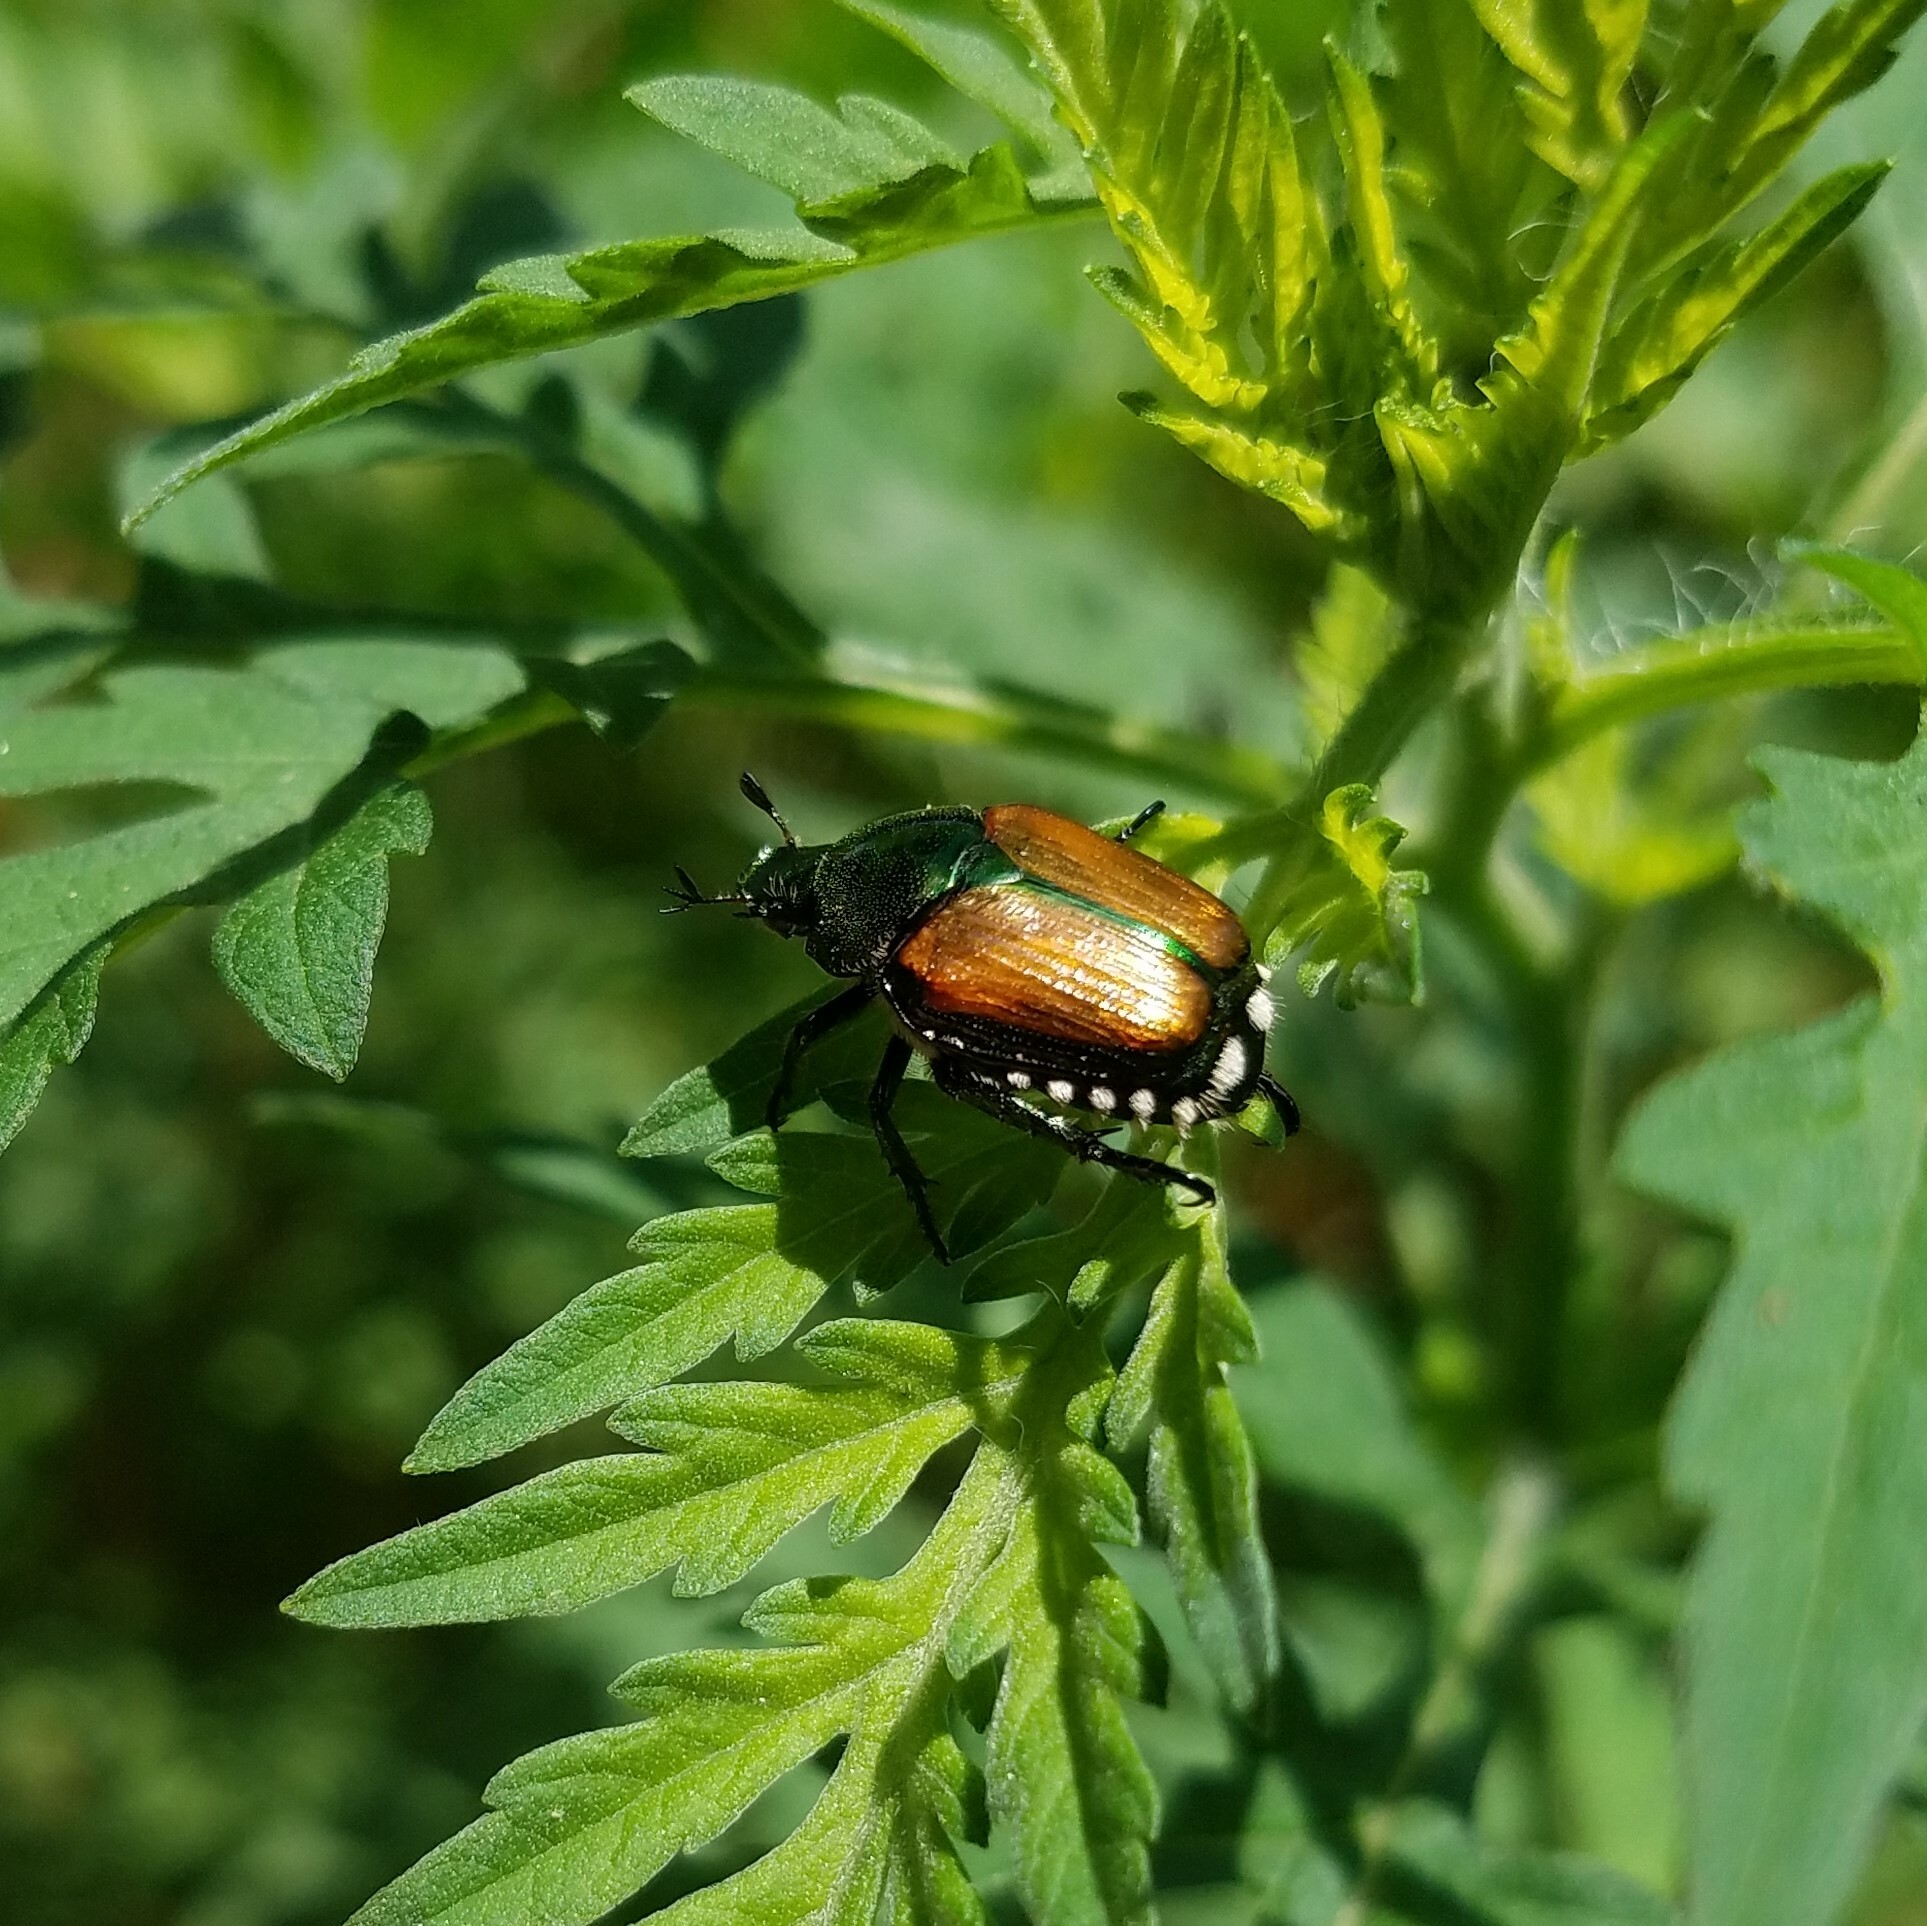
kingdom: Animalia
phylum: Arthropoda
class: Insecta
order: Coleoptera
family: Scarabaeidae
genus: Popillia
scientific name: Popillia japonica
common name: Japanese beetle
